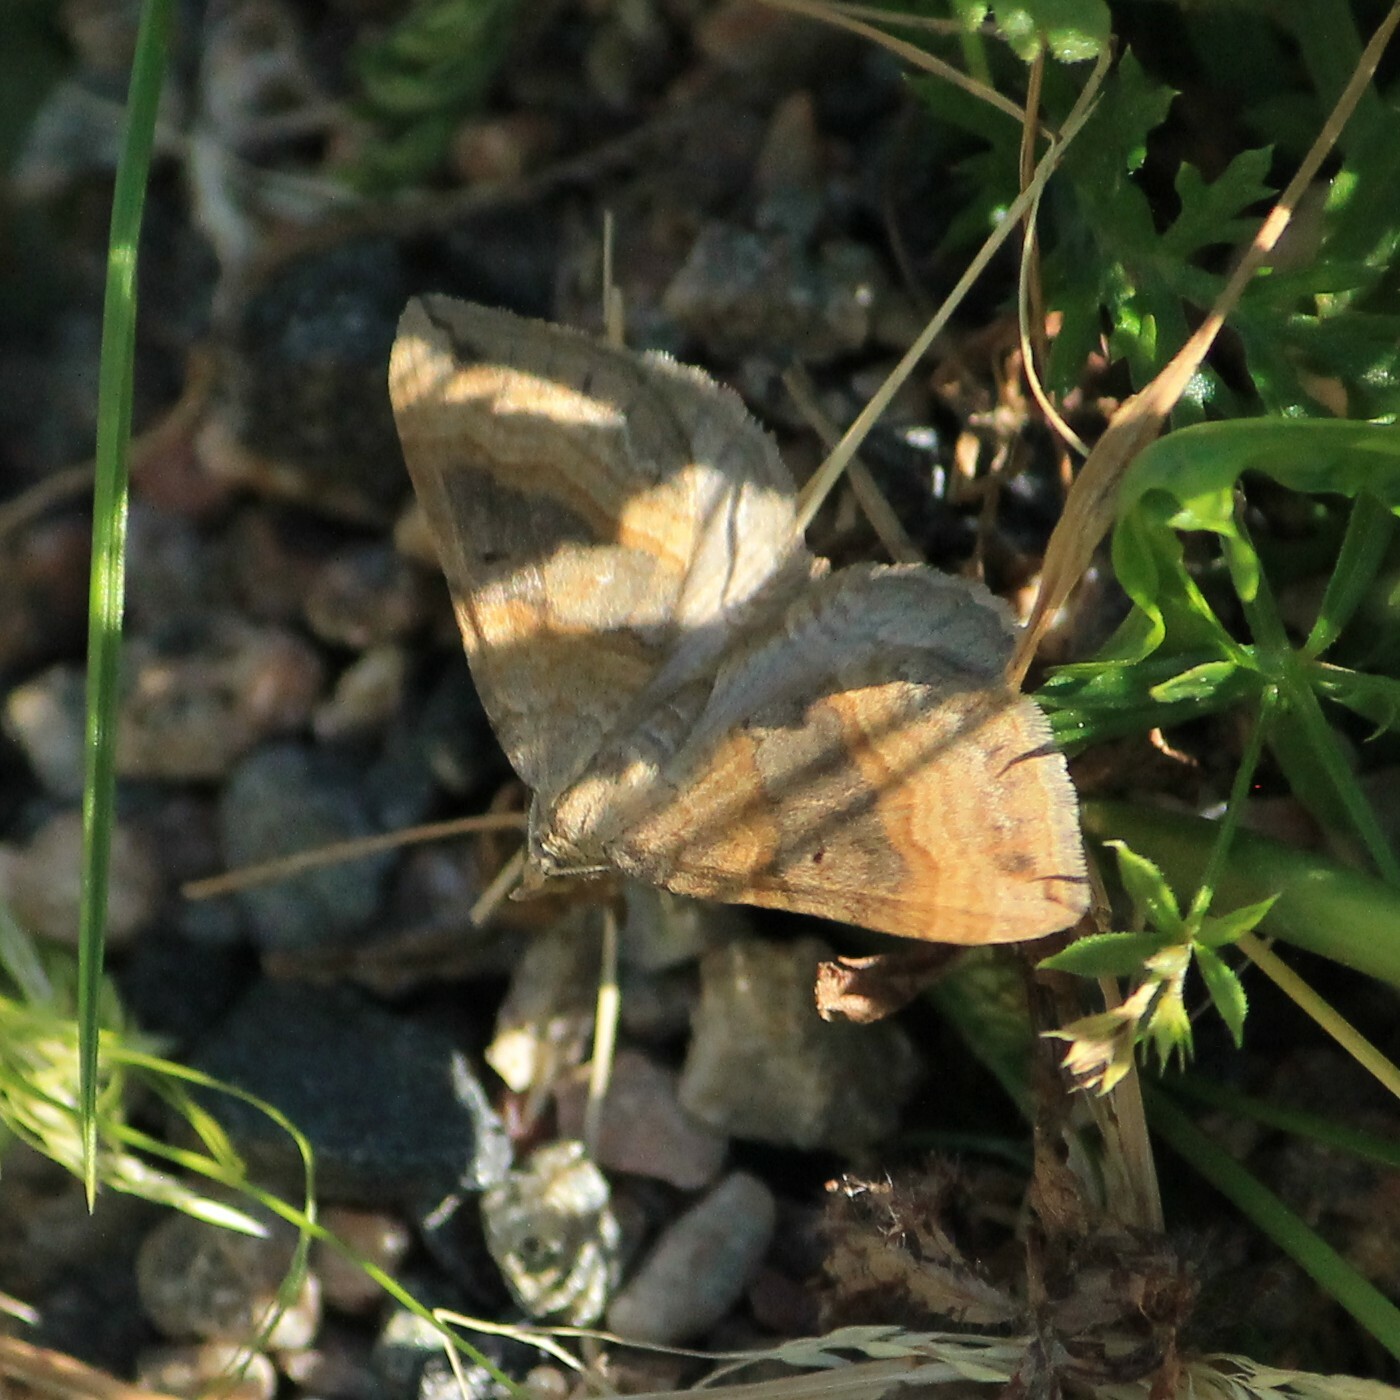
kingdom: Animalia
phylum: Arthropoda
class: Insecta
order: Lepidoptera
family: Geometridae
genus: Scotopteryx
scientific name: Scotopteryx chenopodiata
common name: Shaded broad-bar
